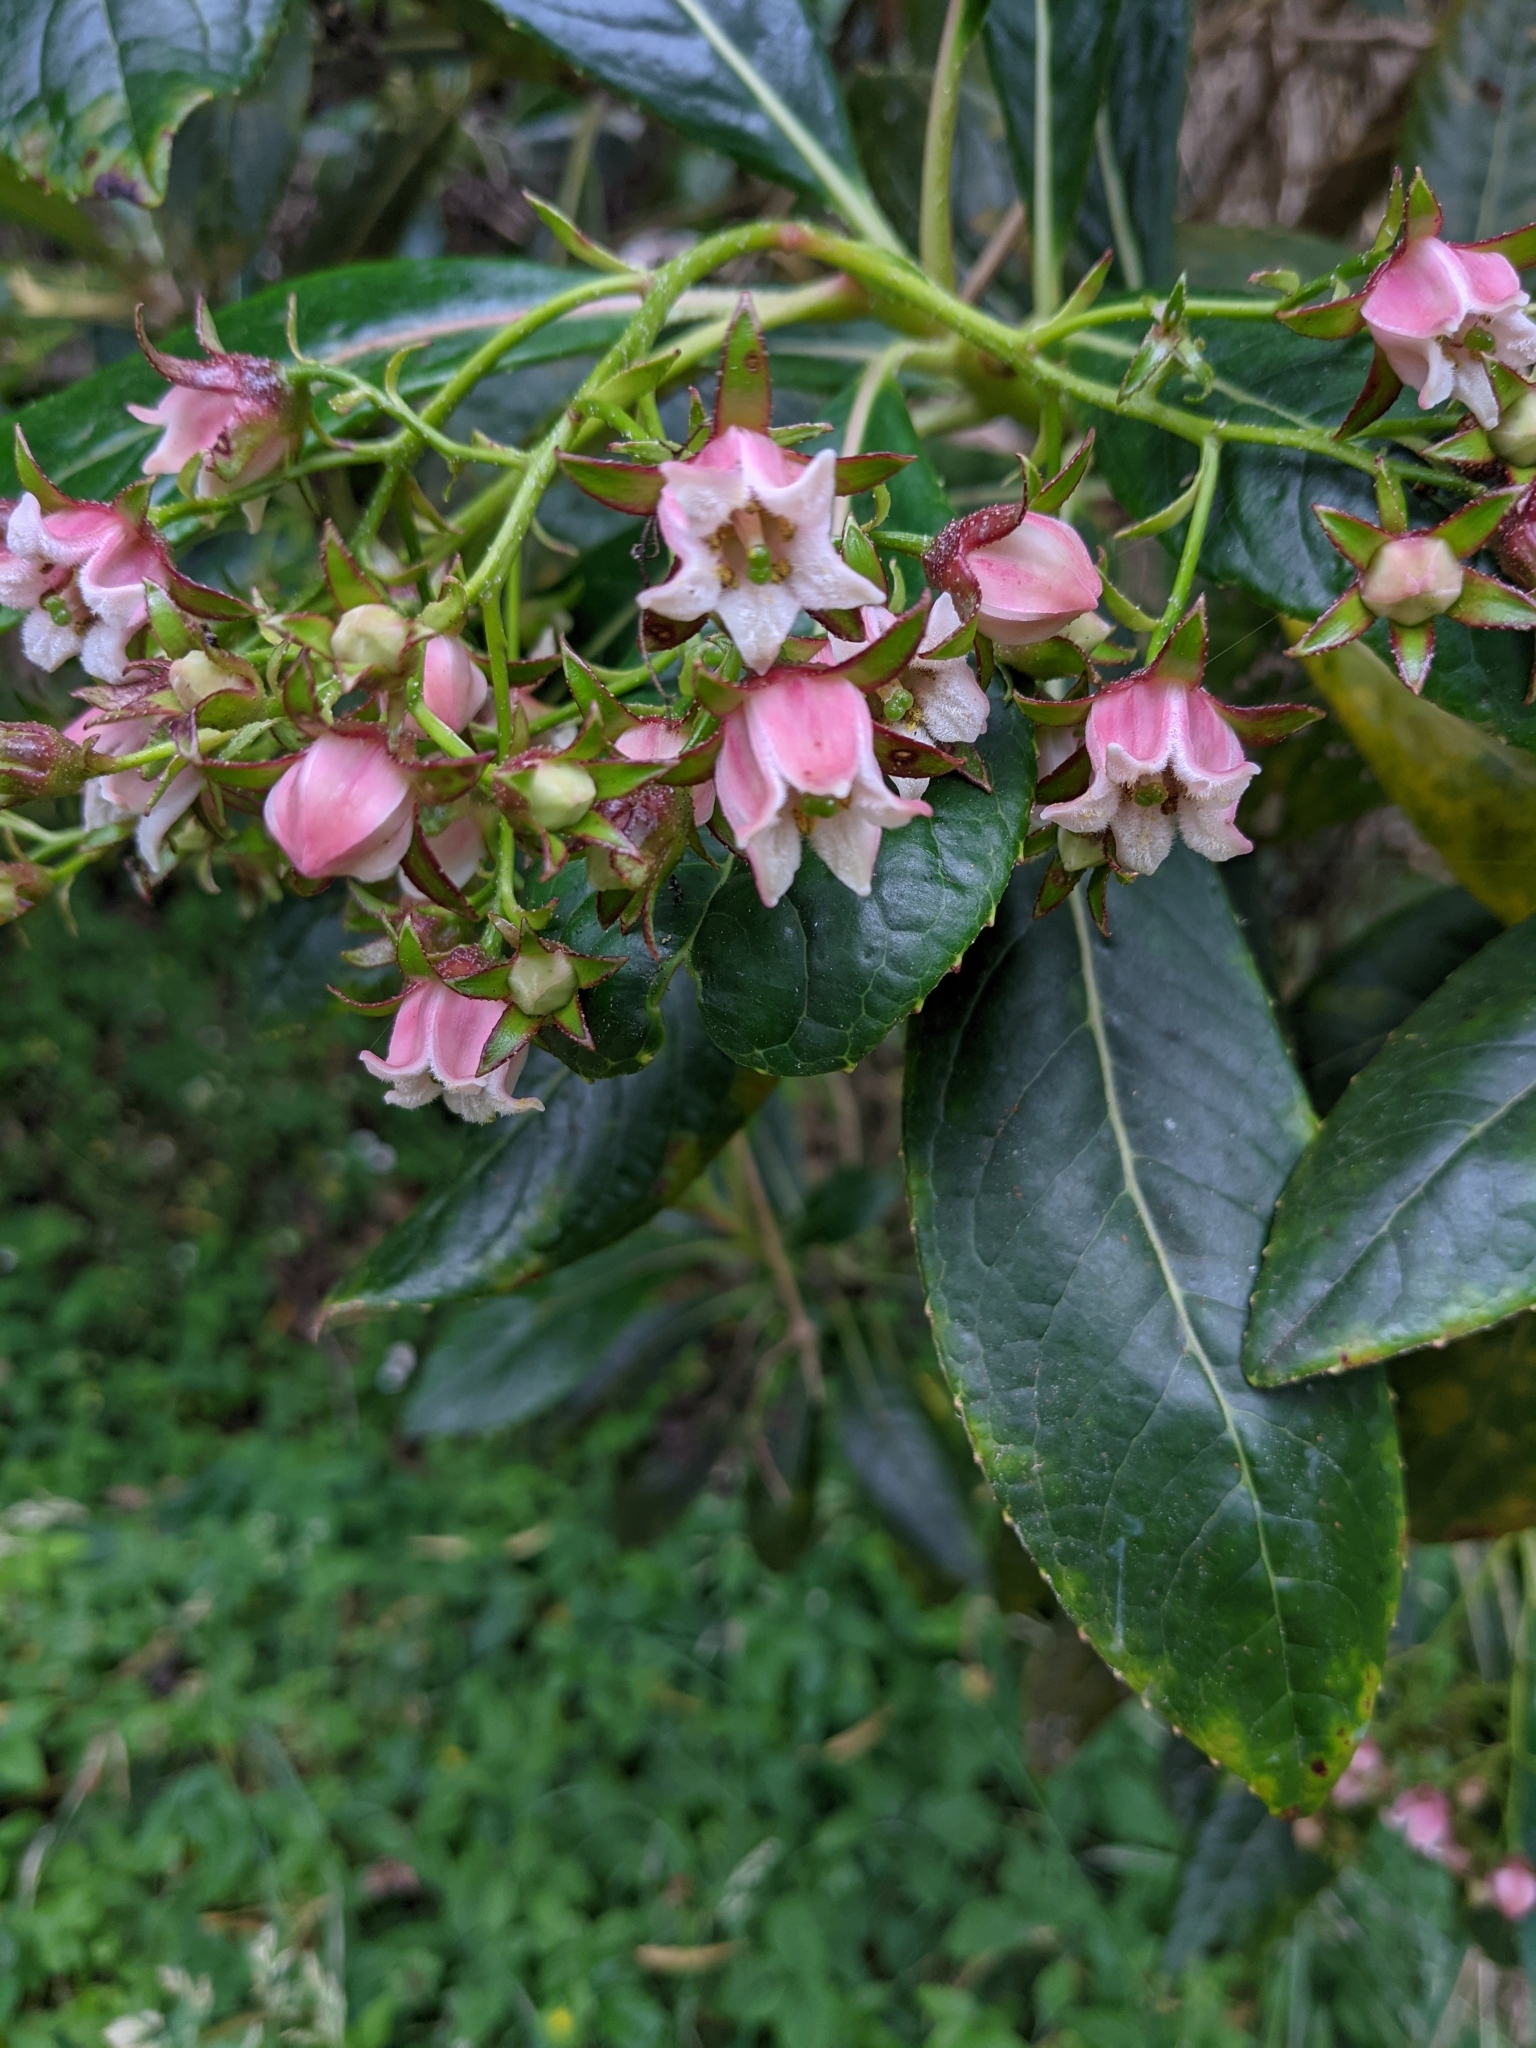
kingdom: Plantae
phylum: Tracheophyta
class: Magnoliopsida
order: Escalloniales
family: Escalloniaceae
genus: Forgesia
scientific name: Forgesia racemosa
